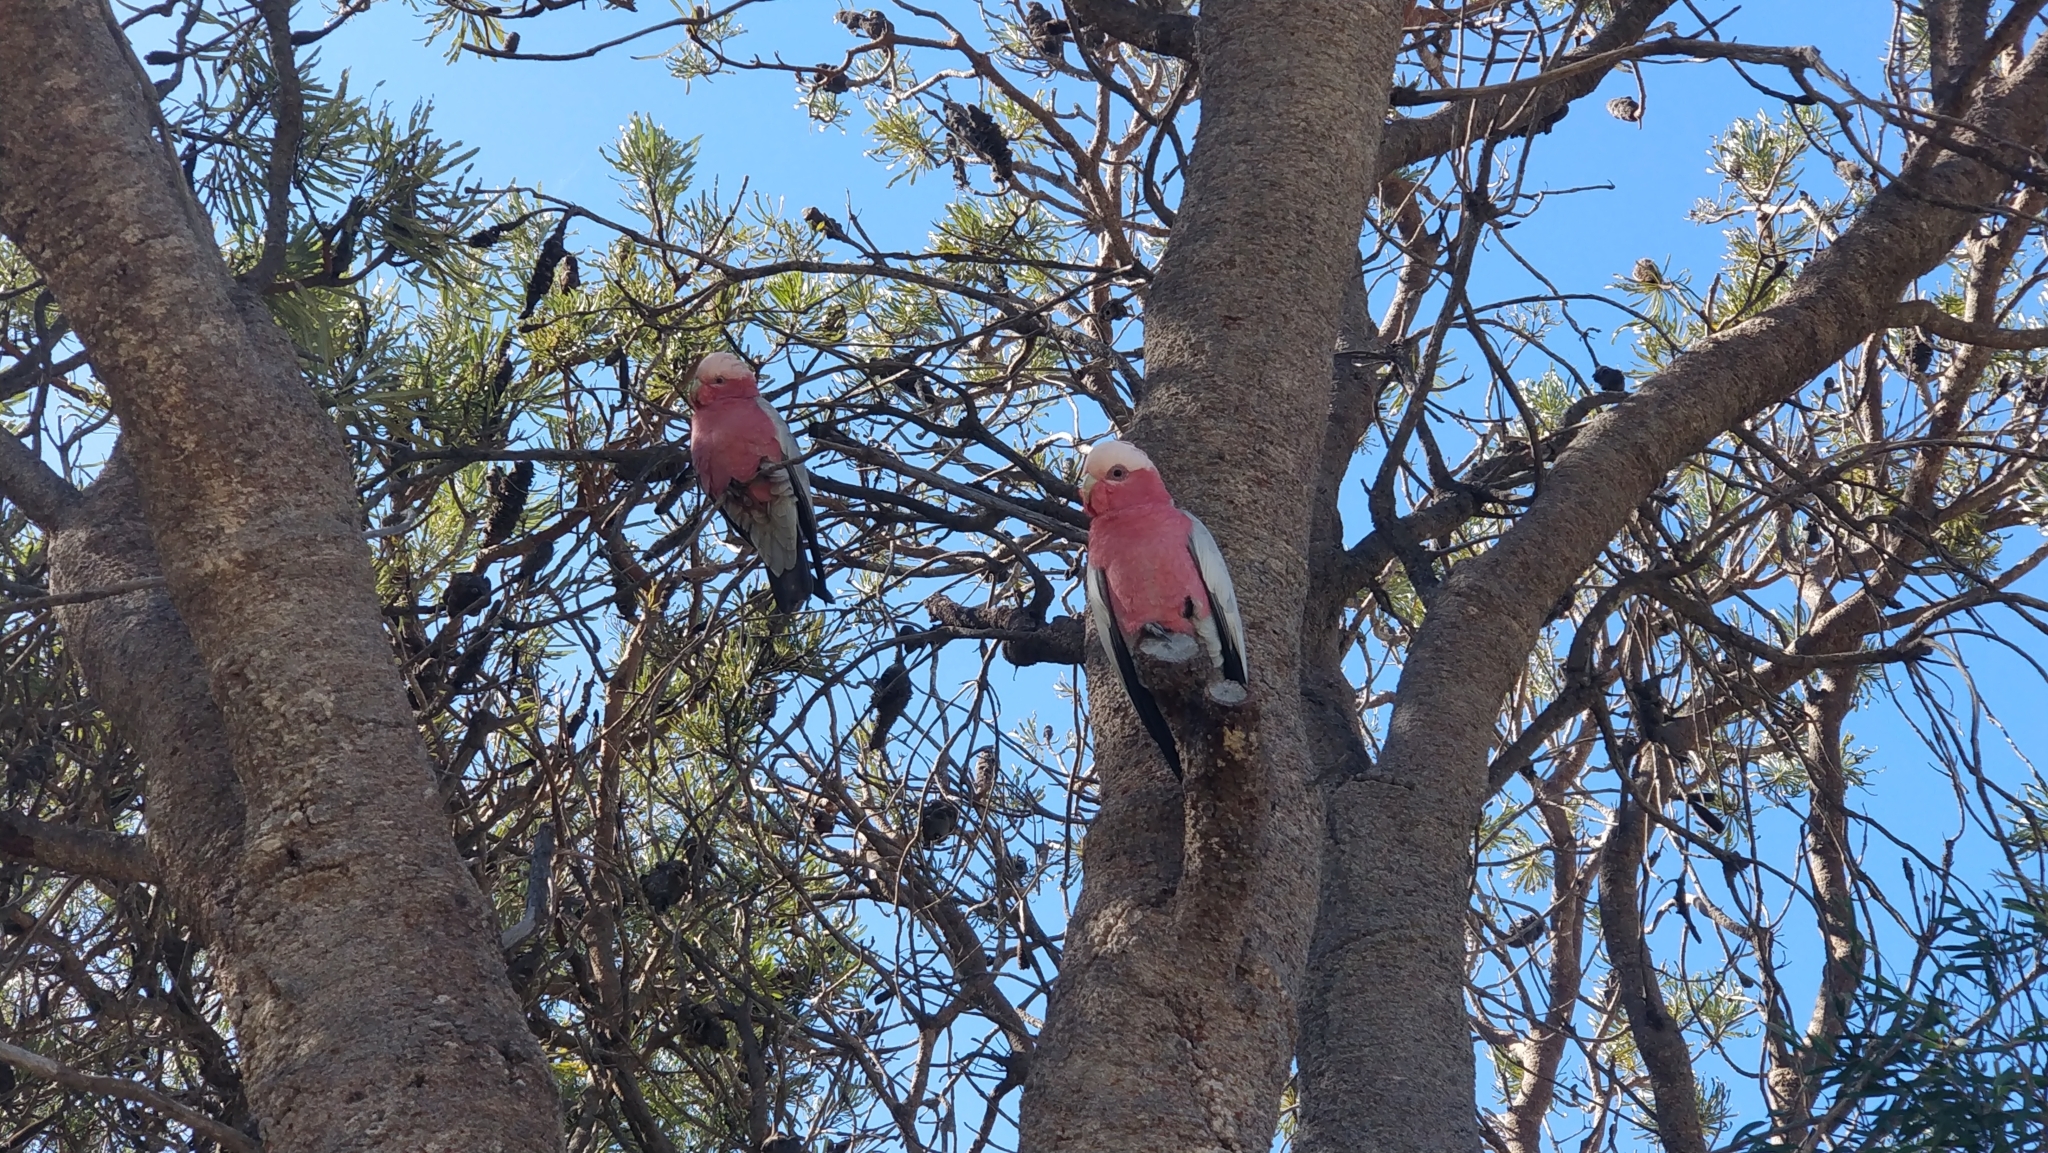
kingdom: Animalia
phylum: Chordata
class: Aves
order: Psittaciformes
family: Psittacidae
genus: Eolophus
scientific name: Eolophus roseicapilla
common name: Galah
